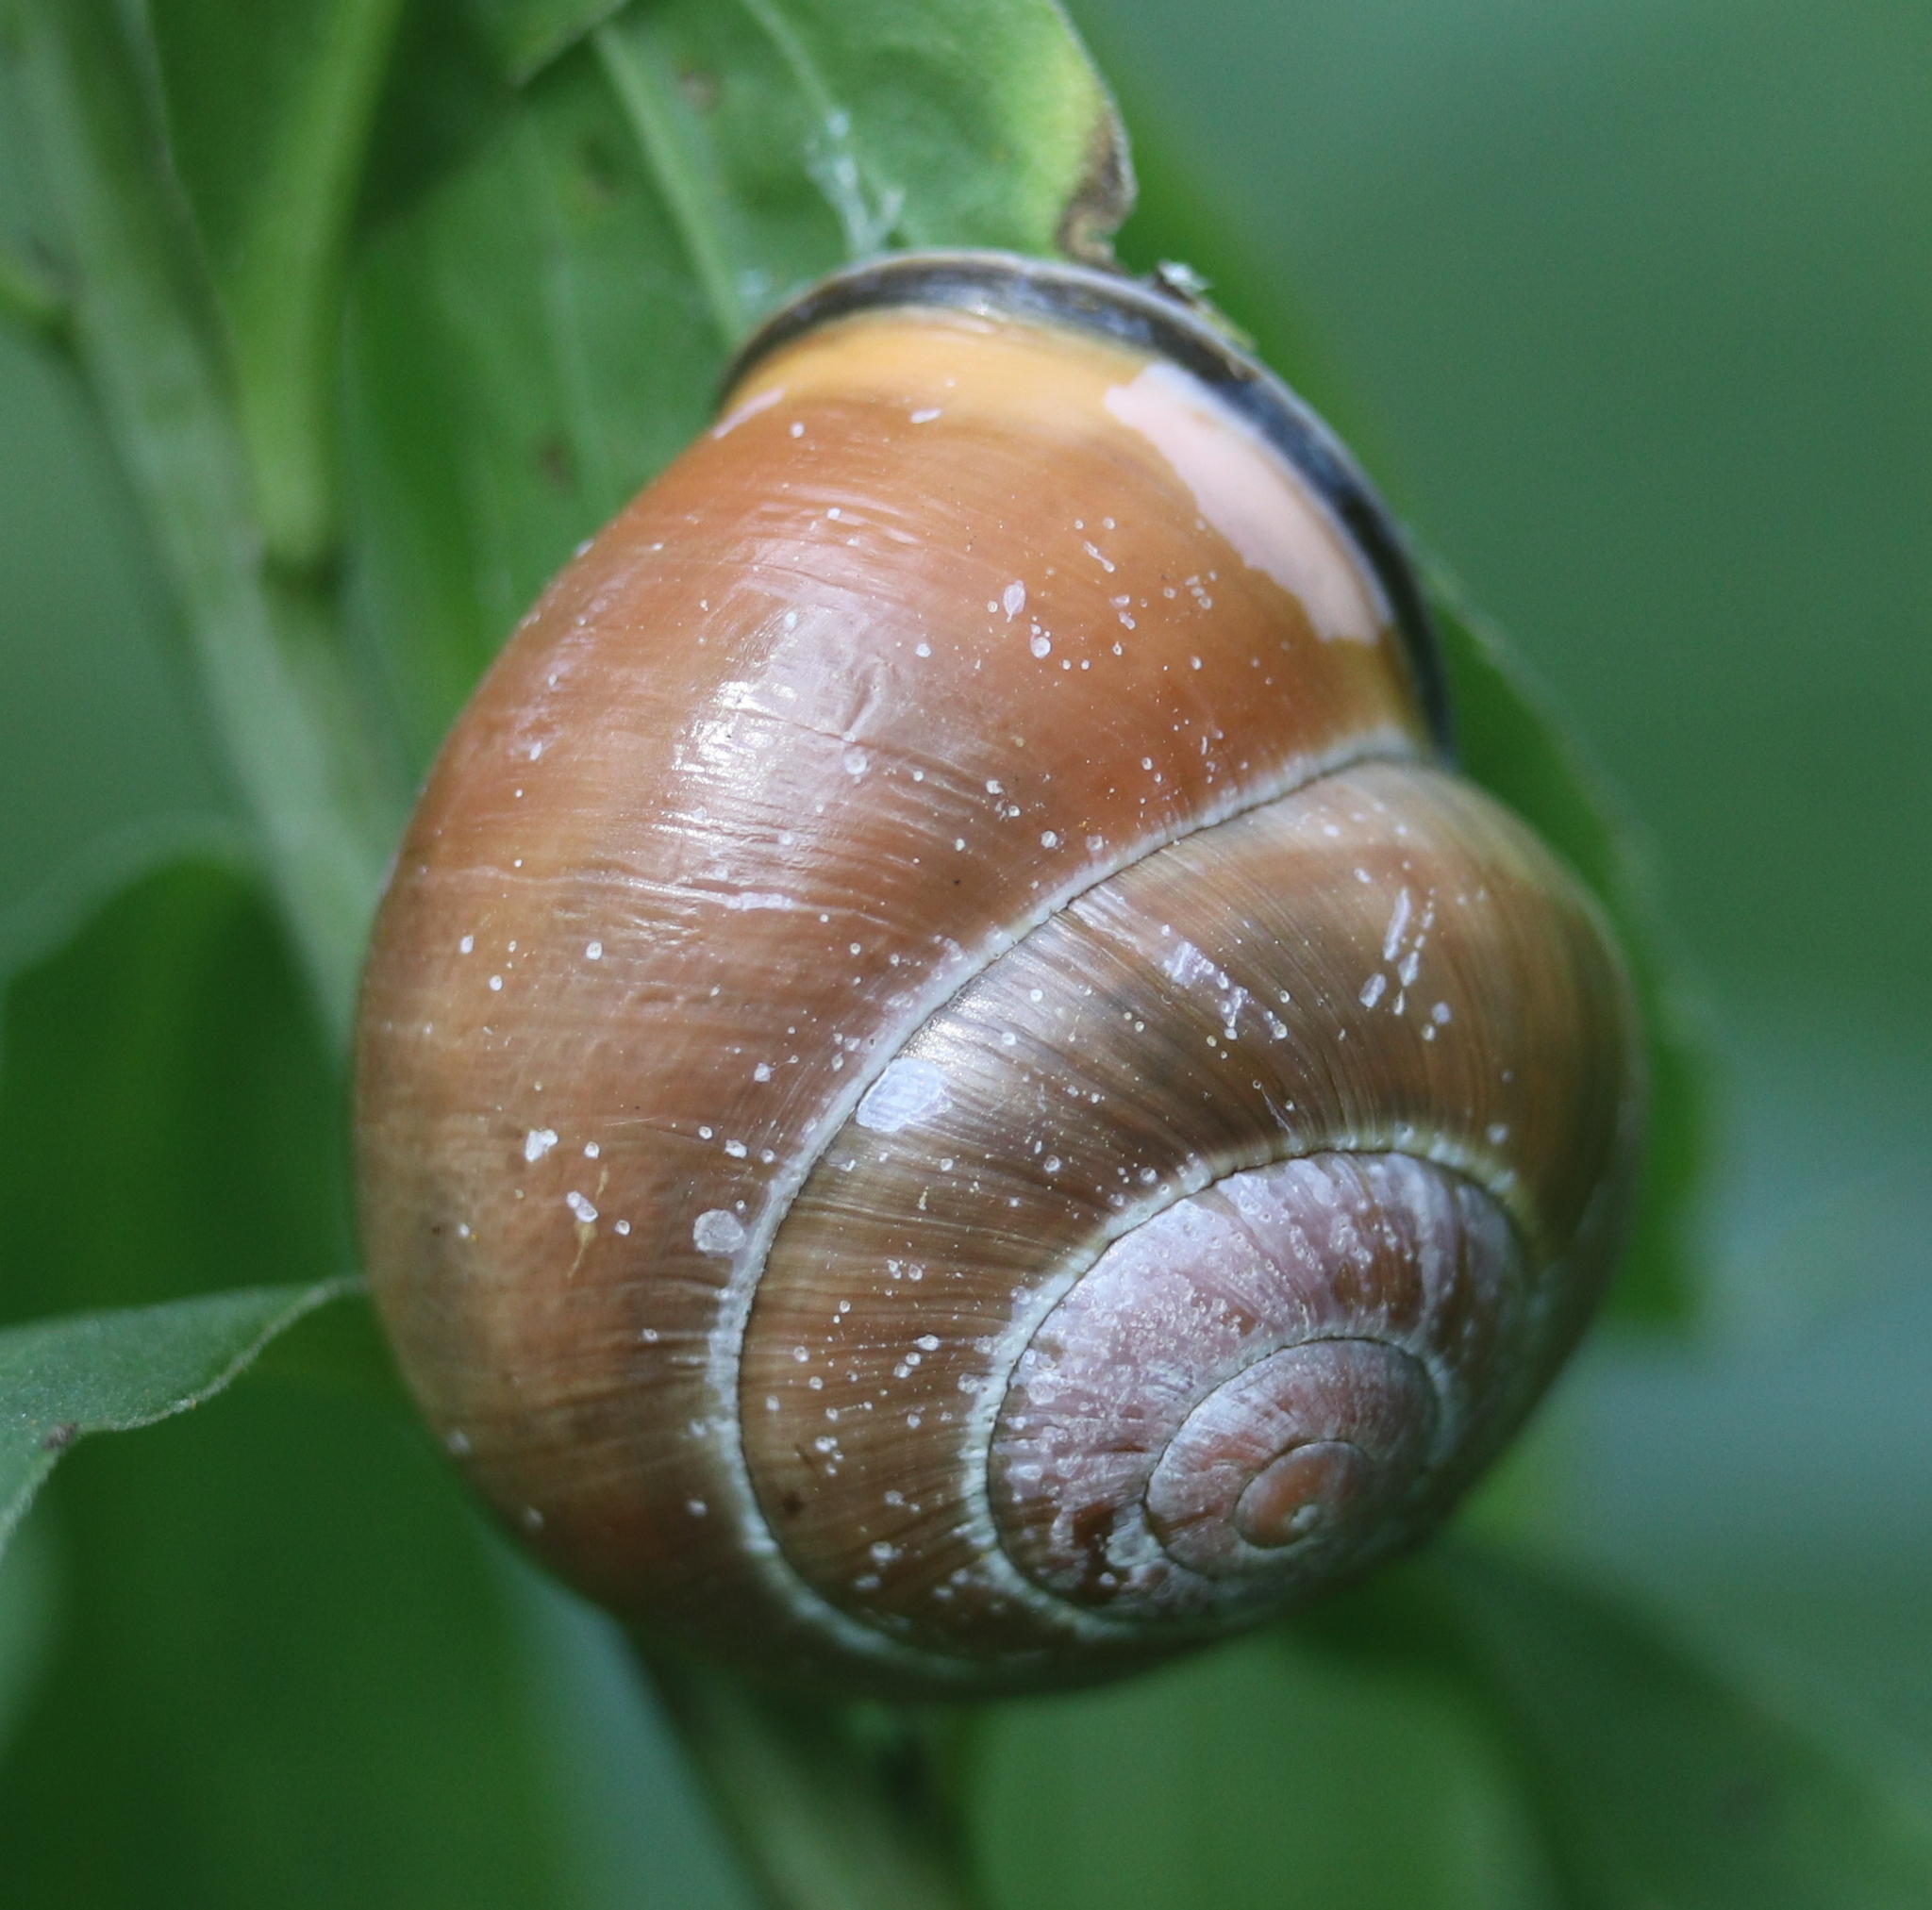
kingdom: Animalia
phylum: Mollusca
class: Gastropoda
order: Stylommatophora
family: Helicidae
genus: Cepaea
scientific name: Cepaea nemoralis
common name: Grovesnail
